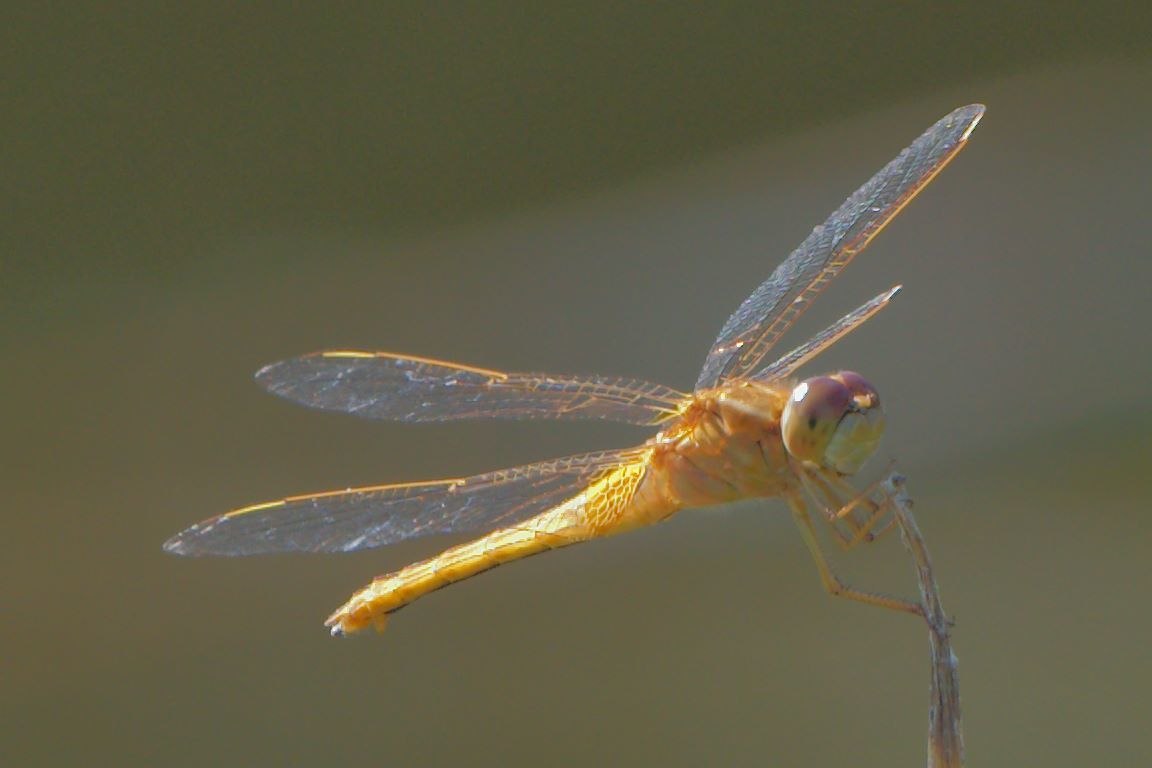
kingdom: Animalia
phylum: Arthropoda
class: Insecta
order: Odonata
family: Libellulidae
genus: Crocothemis
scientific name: Crocothemis servilia
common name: Scarlet skimmer
